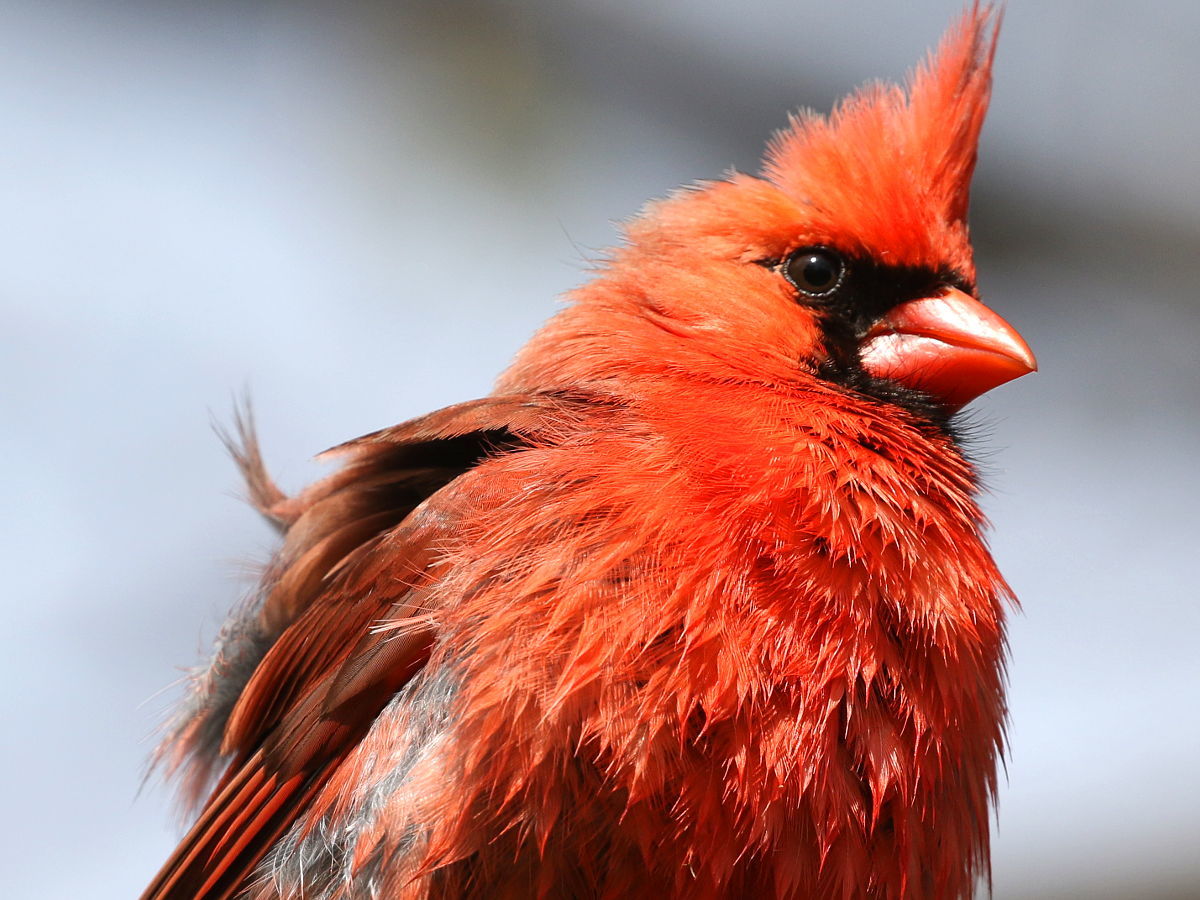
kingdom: Animalia
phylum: Chordata
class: Aves
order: Passeriformes
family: Cardinalidae
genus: Cardinalis
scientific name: Cardinalis cardinalis
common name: Northern cardinal
